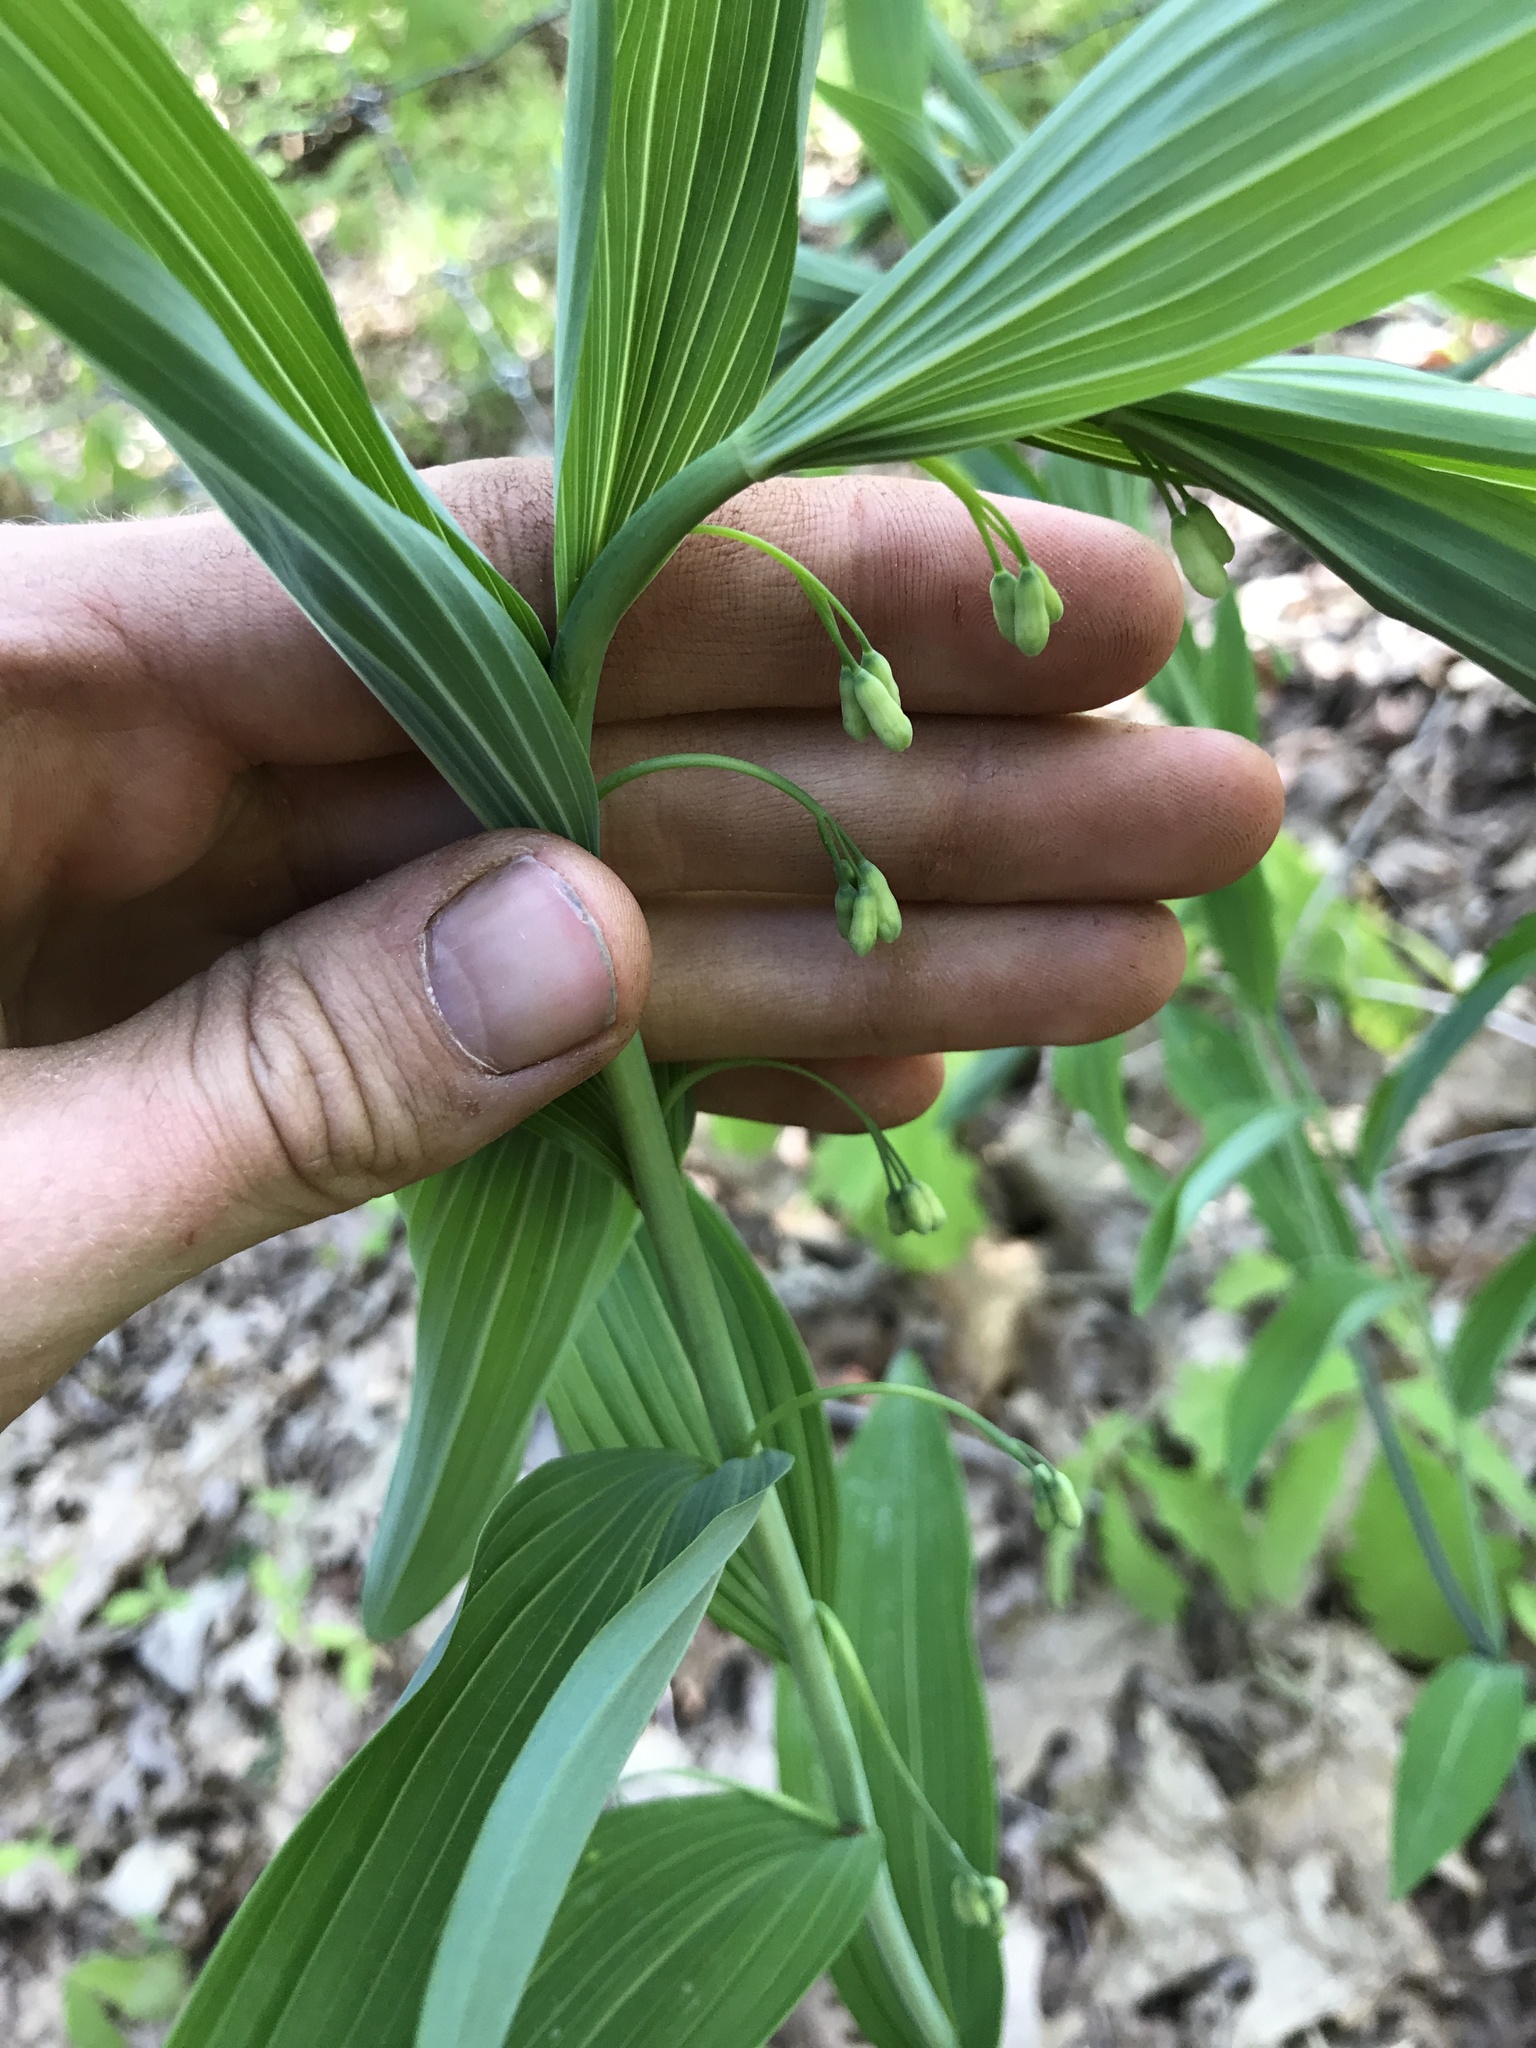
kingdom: Plantae
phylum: Tracheophyta
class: Liliopsida
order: Asparagales
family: Asparagaceae
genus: Polygonatum
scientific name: Polygonatum biflorum
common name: American solomon's-seal
